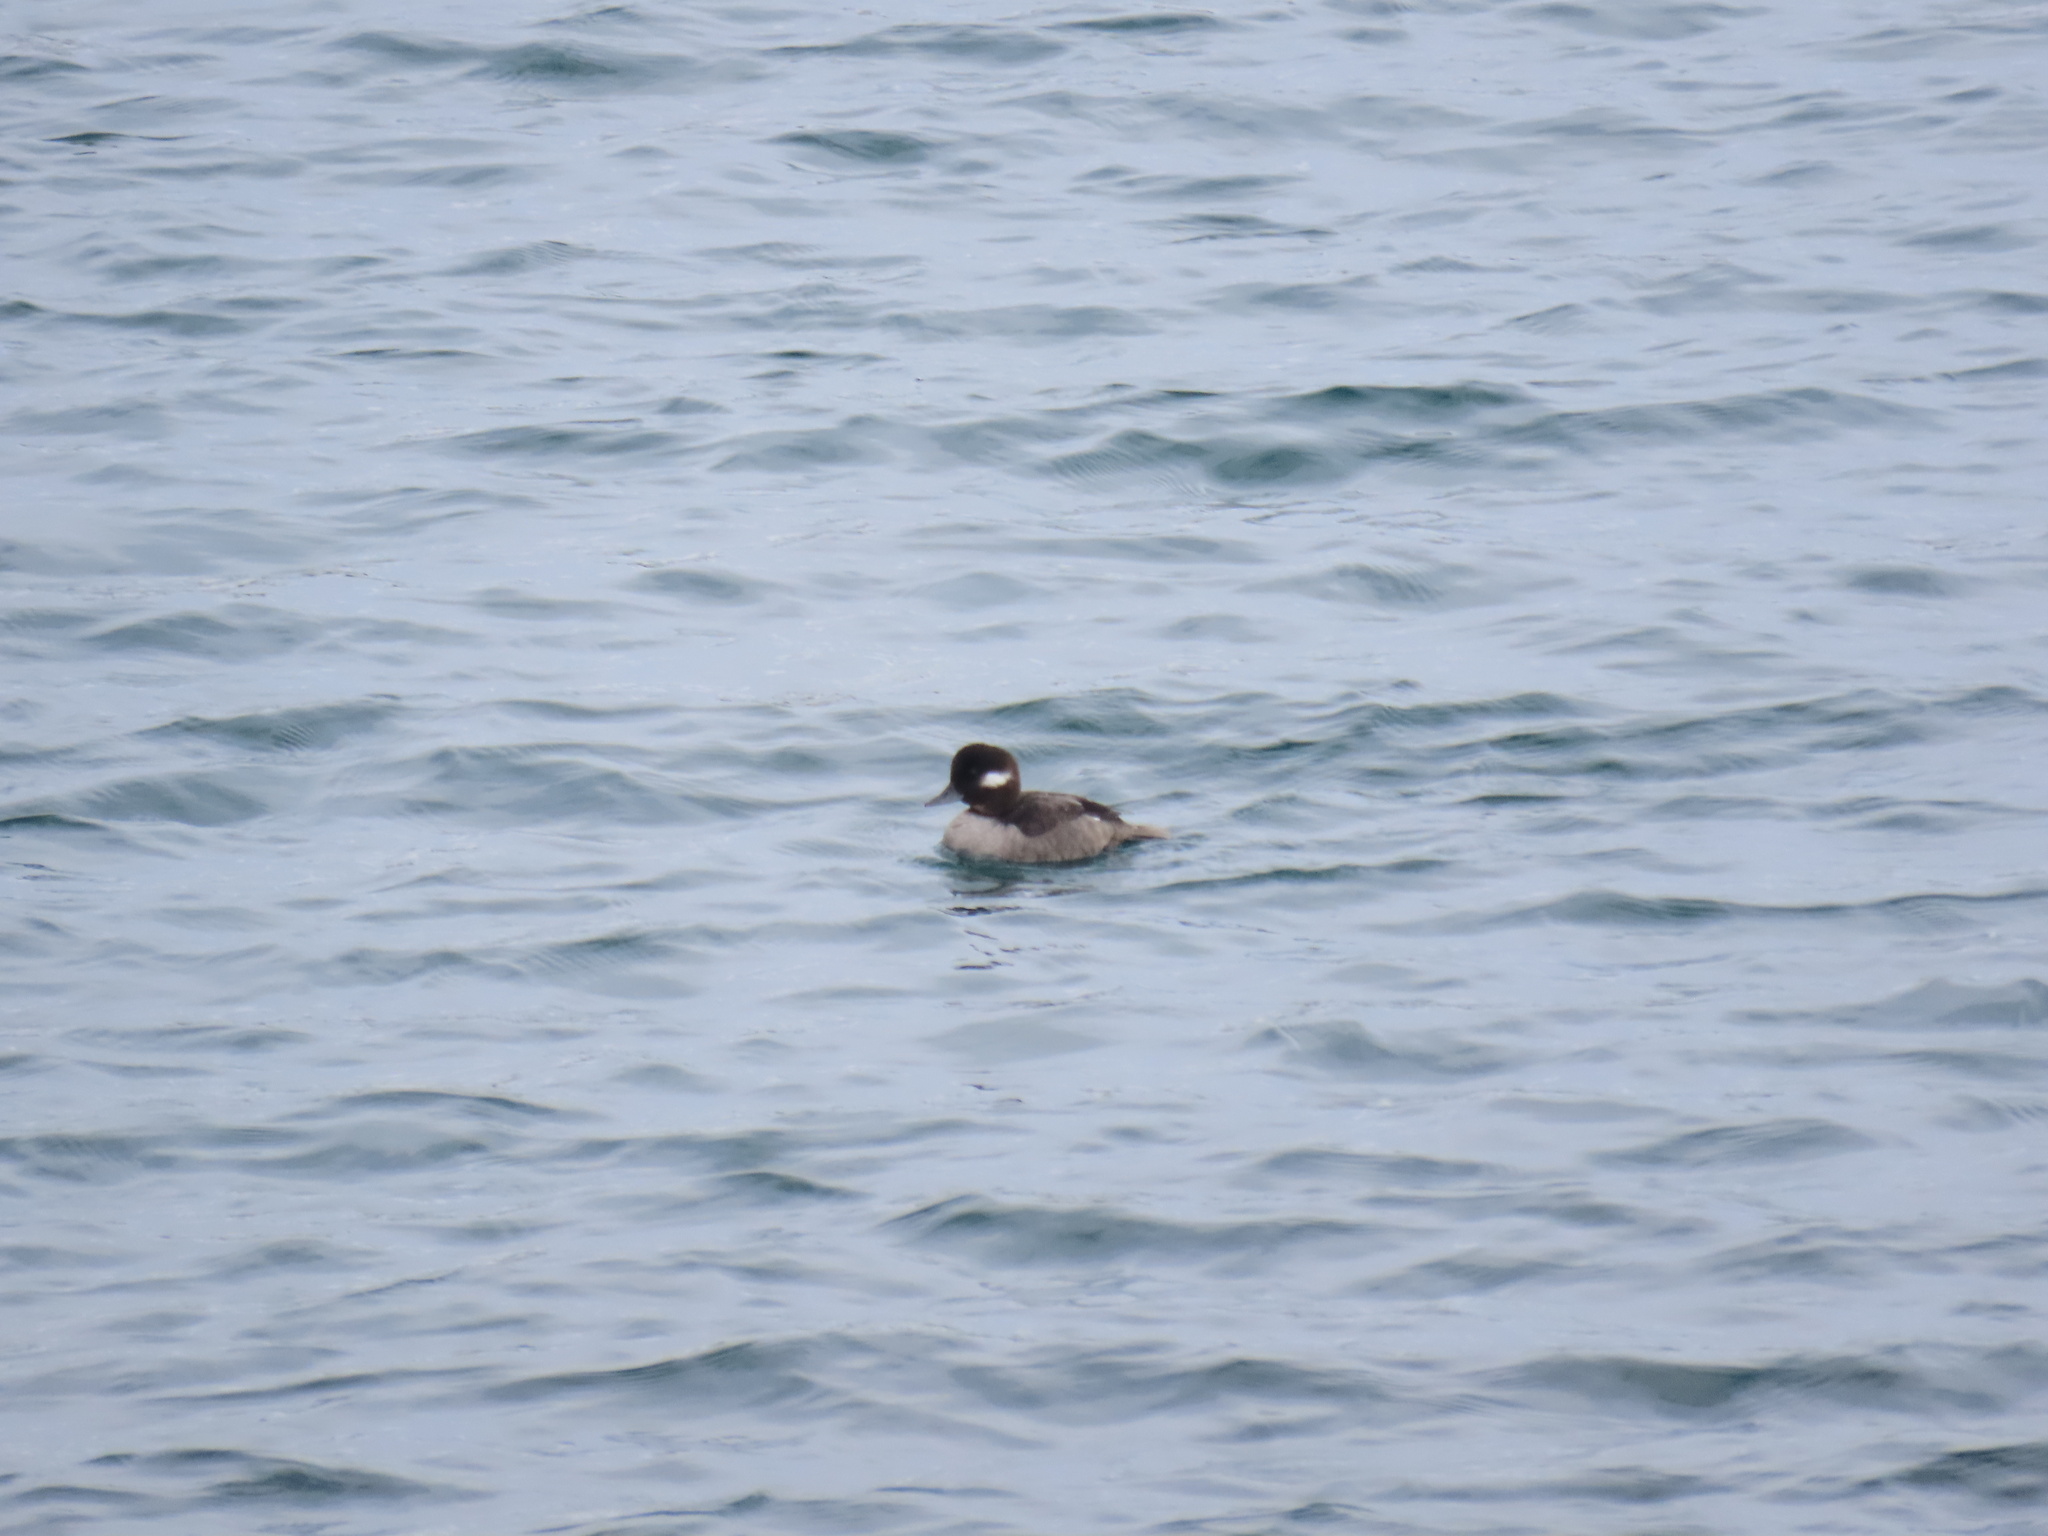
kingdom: Animalia
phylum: Chordata
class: Aves
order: Anseriformes
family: Anatidae
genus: Bucephala
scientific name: Bucephala albeola
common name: Bufflehead
